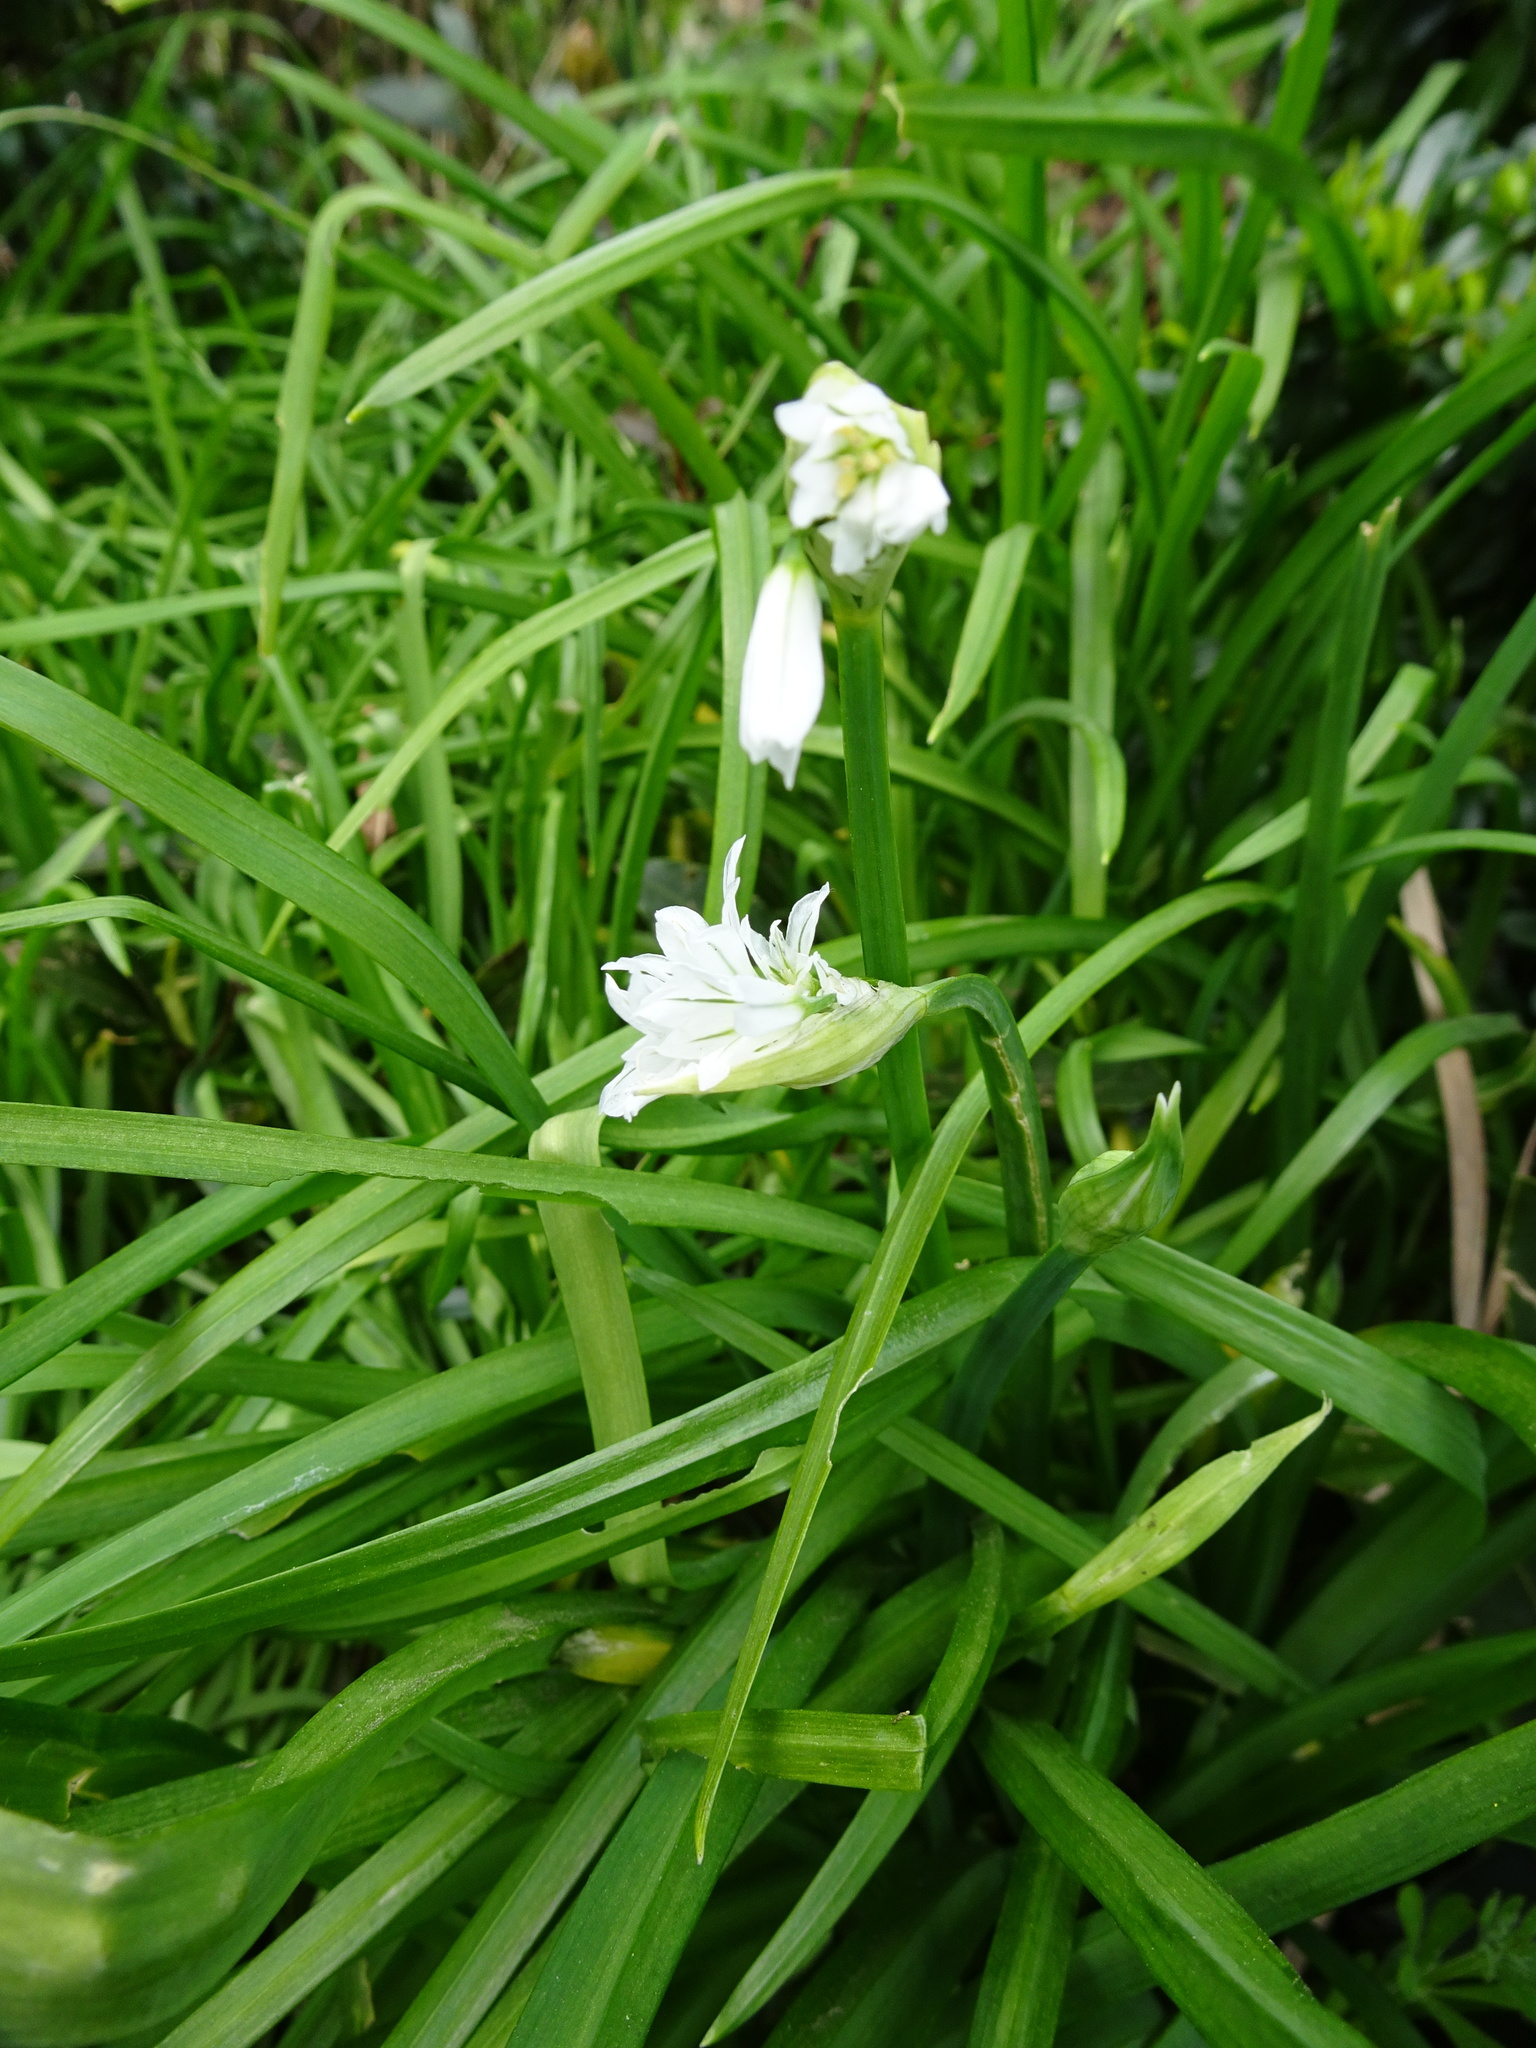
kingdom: Plantae
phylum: Tracheophyta
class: Liliopsida
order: Asparagales
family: Amaryllidaceae
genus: Allium
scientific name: Allium triquetrum
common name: Three-cornered garlic
